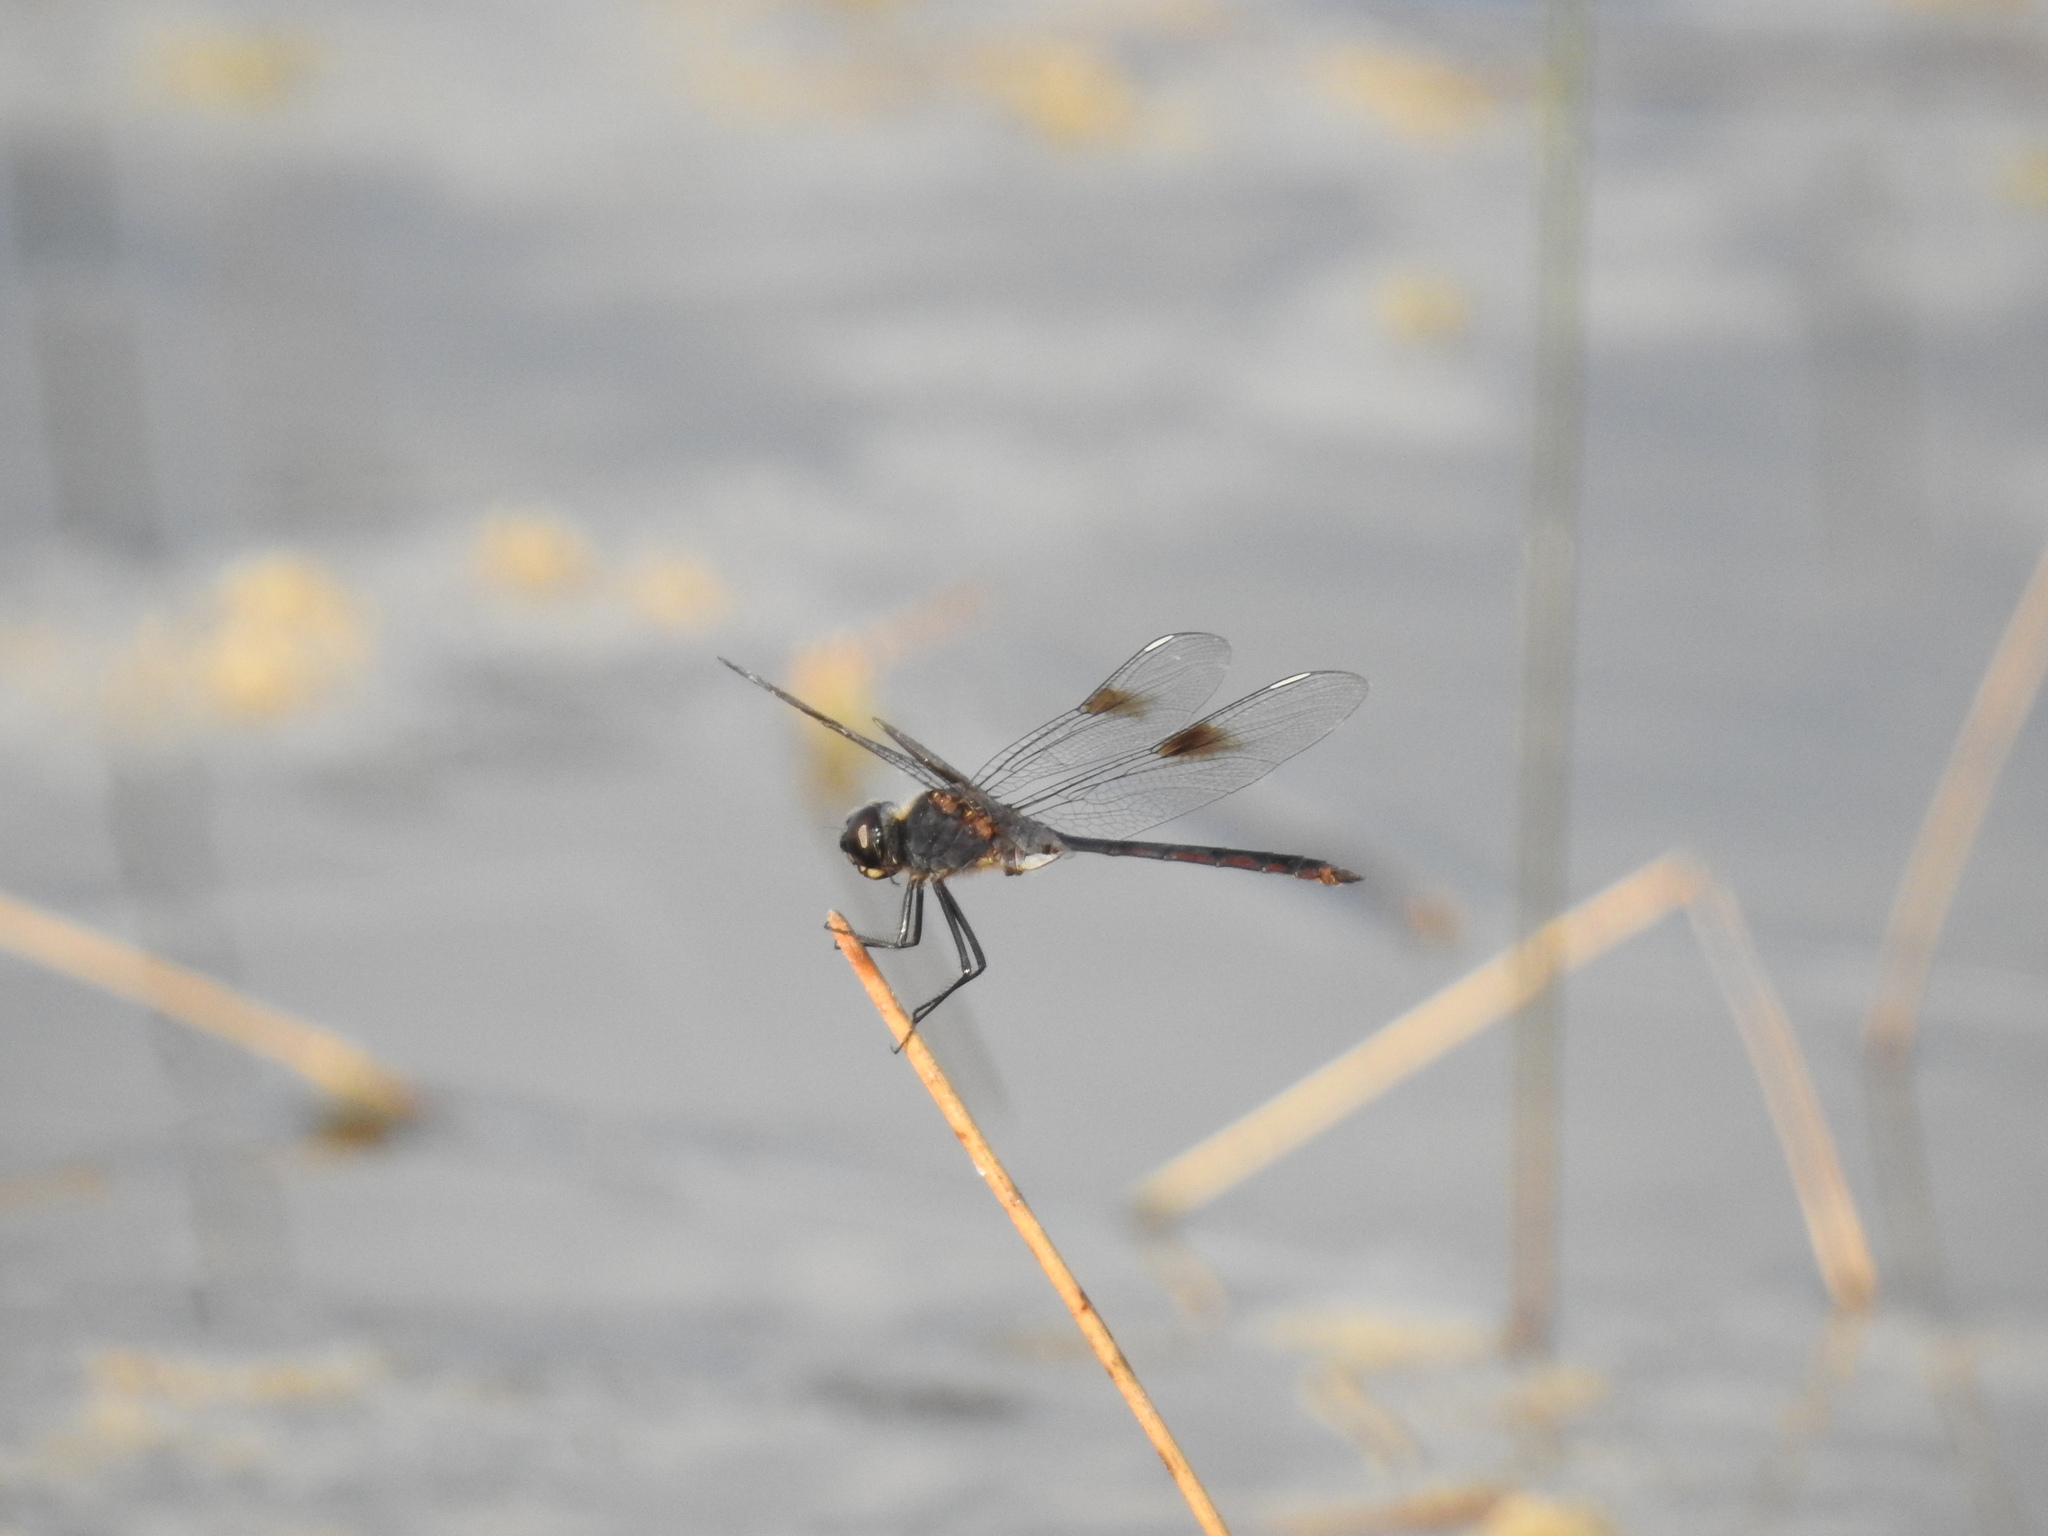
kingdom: Animalia
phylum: Arthropoda
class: Insecta
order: Odonata
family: Libellulidae
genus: Brachymesia
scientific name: Brachymesia gravida
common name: Four-spotted pennant
